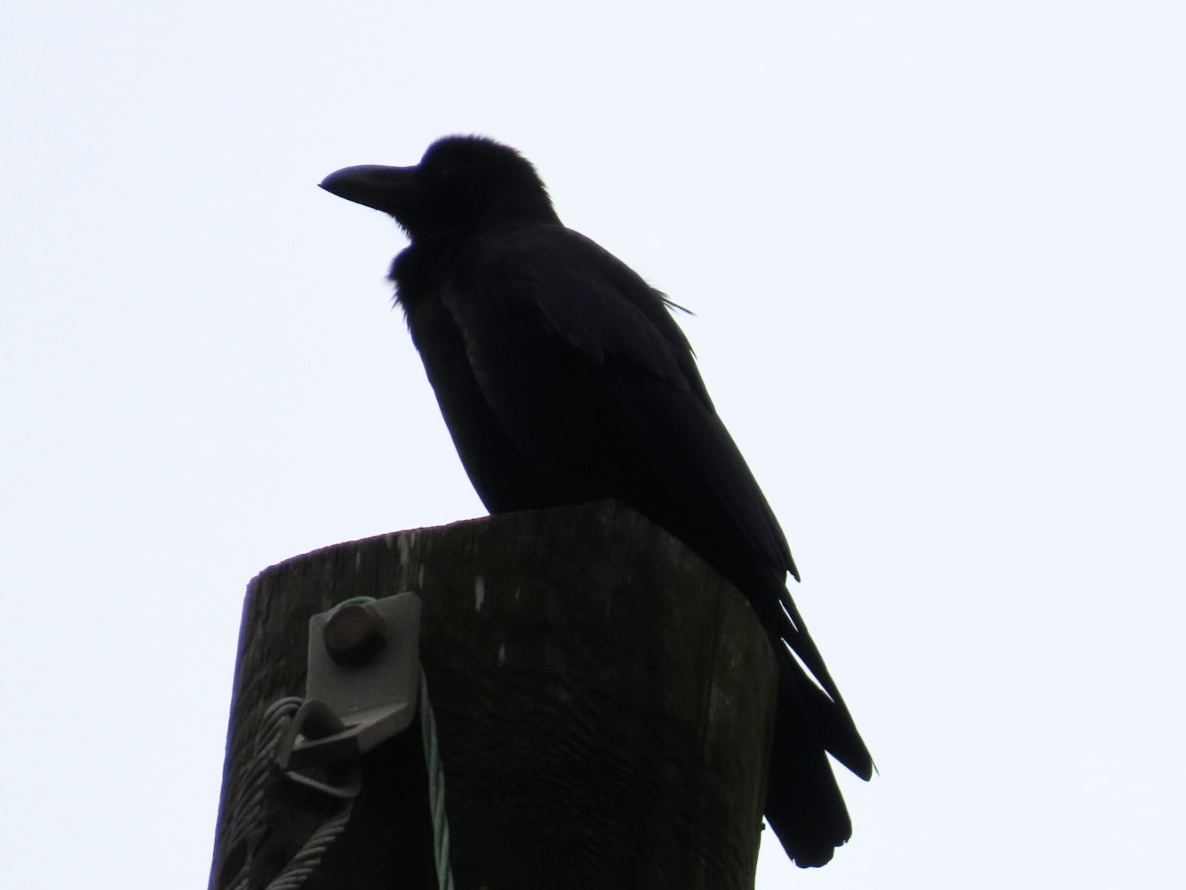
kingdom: Animalia
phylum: Chordata
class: Aves
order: Passeriformes
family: Corvidae
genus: Corvus
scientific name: Corvus macrorhynchos
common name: Large-billed crow
